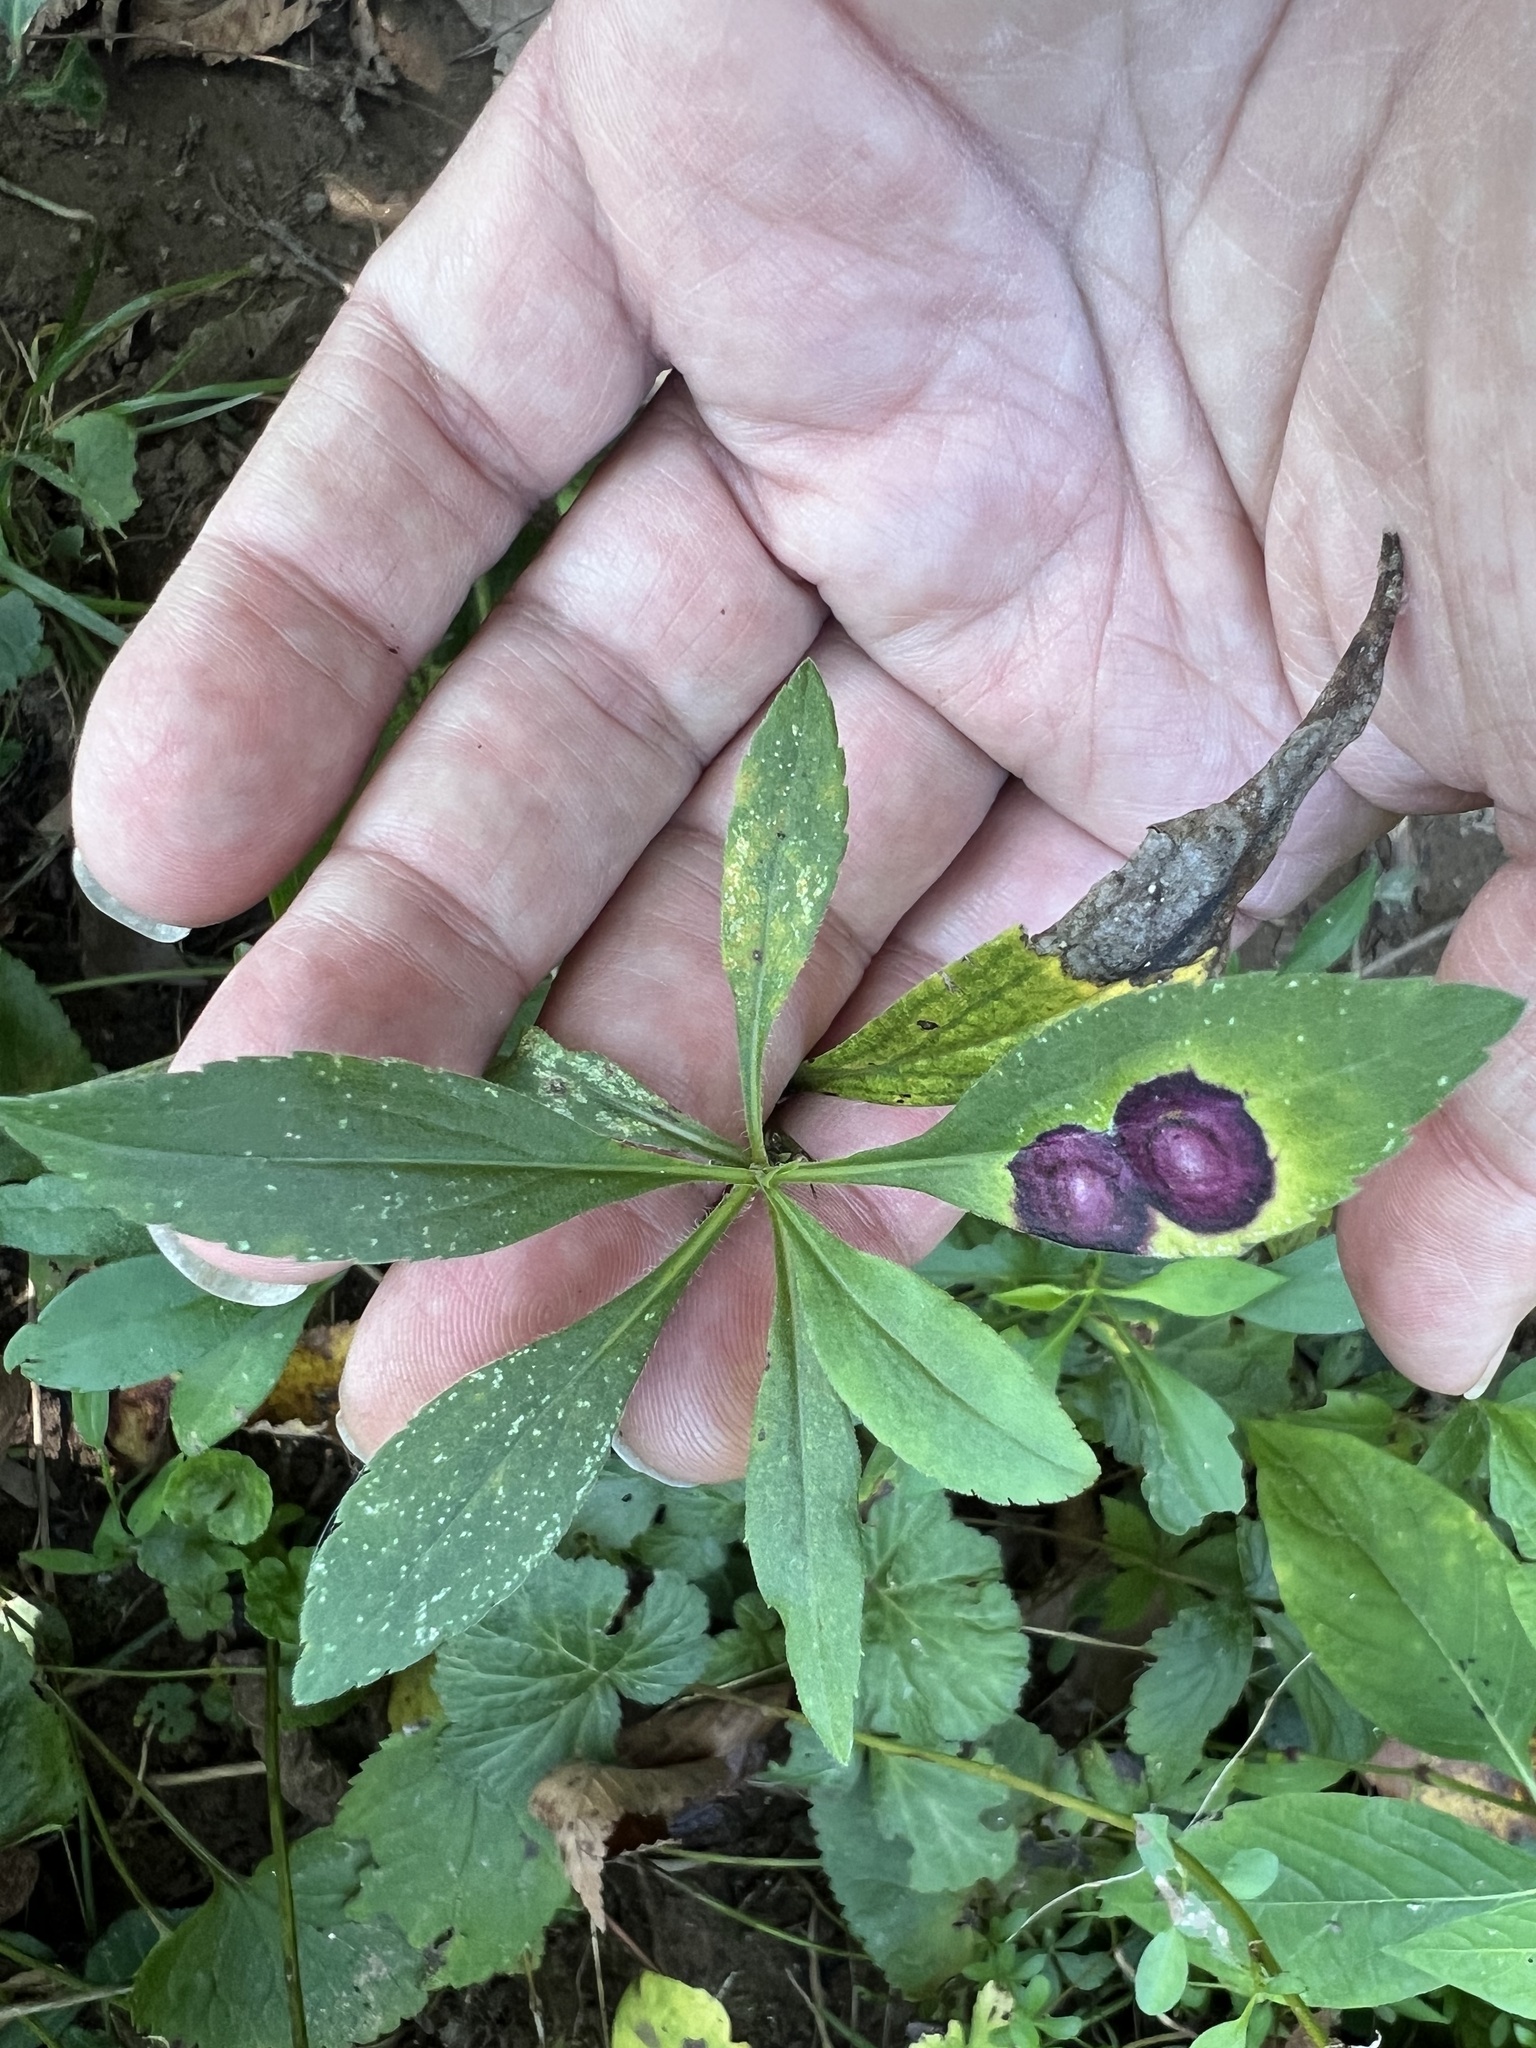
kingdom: Animalia
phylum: Arthropoda
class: Insecta
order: Diptera
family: Cecidomyiidae
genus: Asteromyia
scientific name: Asteromyia carbonifera
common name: Carbonifera goldenrod gall midge
